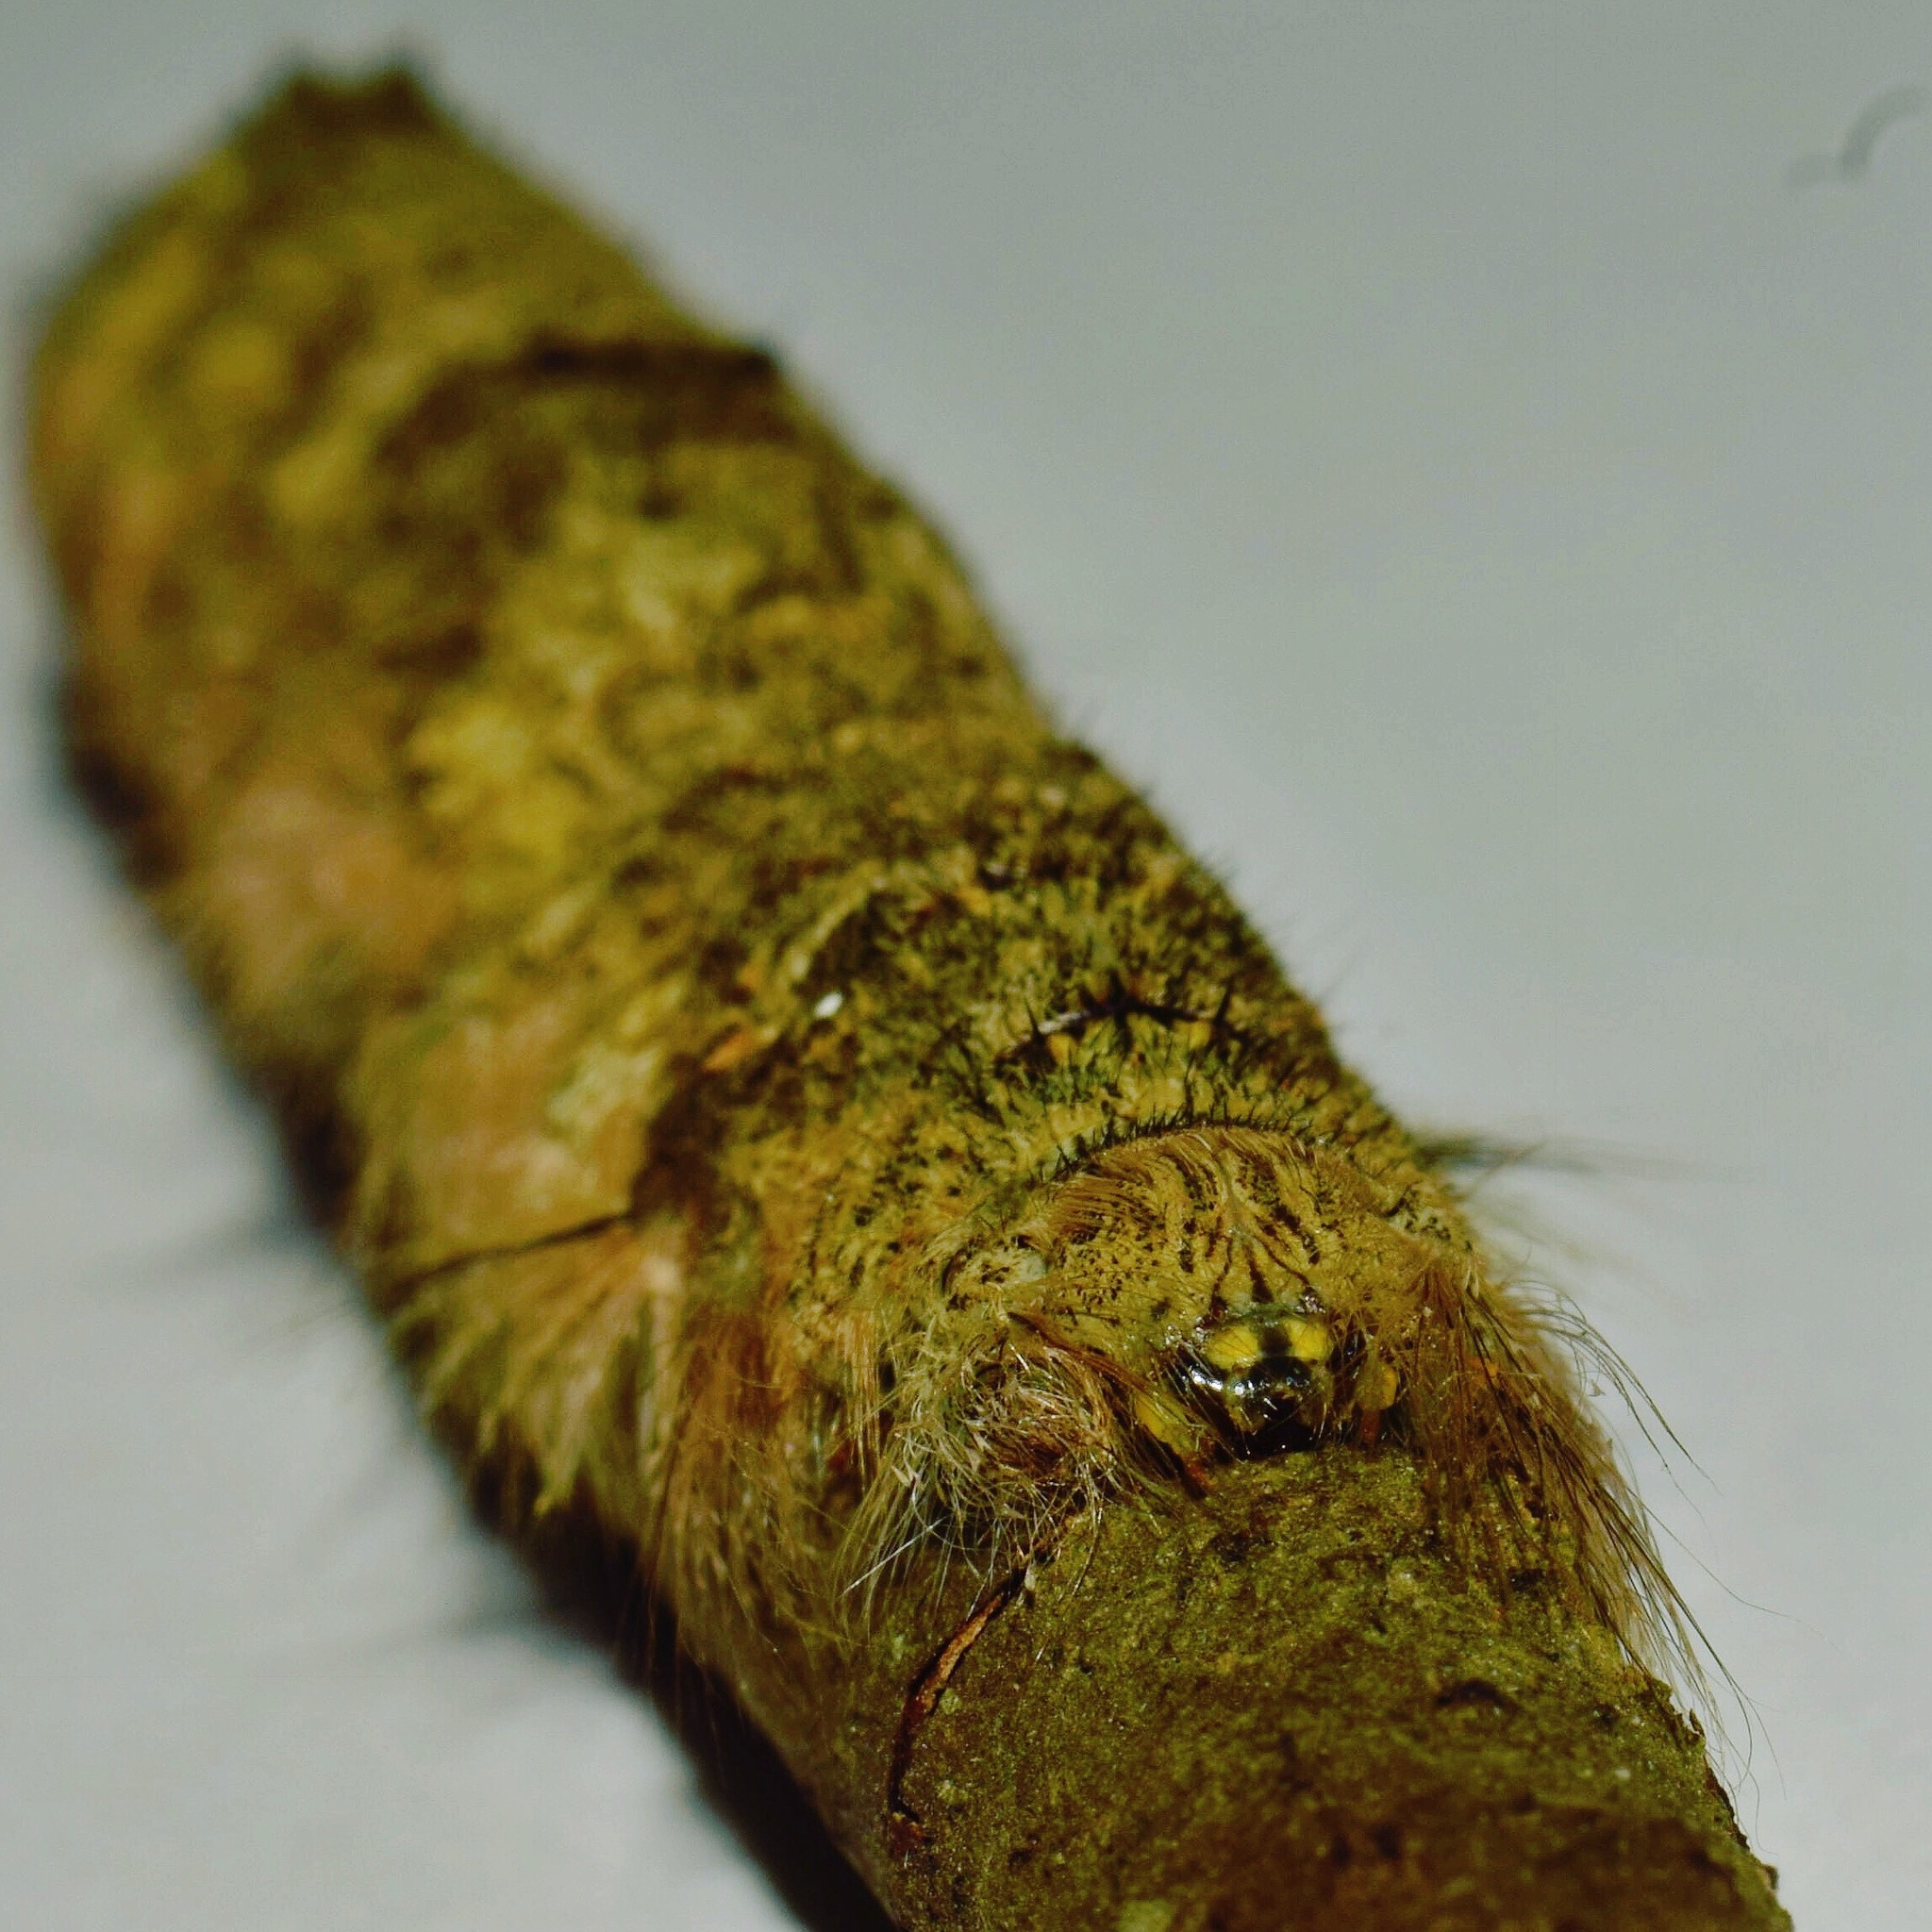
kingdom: Animalia
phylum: Arthropoda
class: Insecta
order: Lepidoptera
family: Lasiocampidae
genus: Stoermeriana
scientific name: Stoermeriana scapulosa
